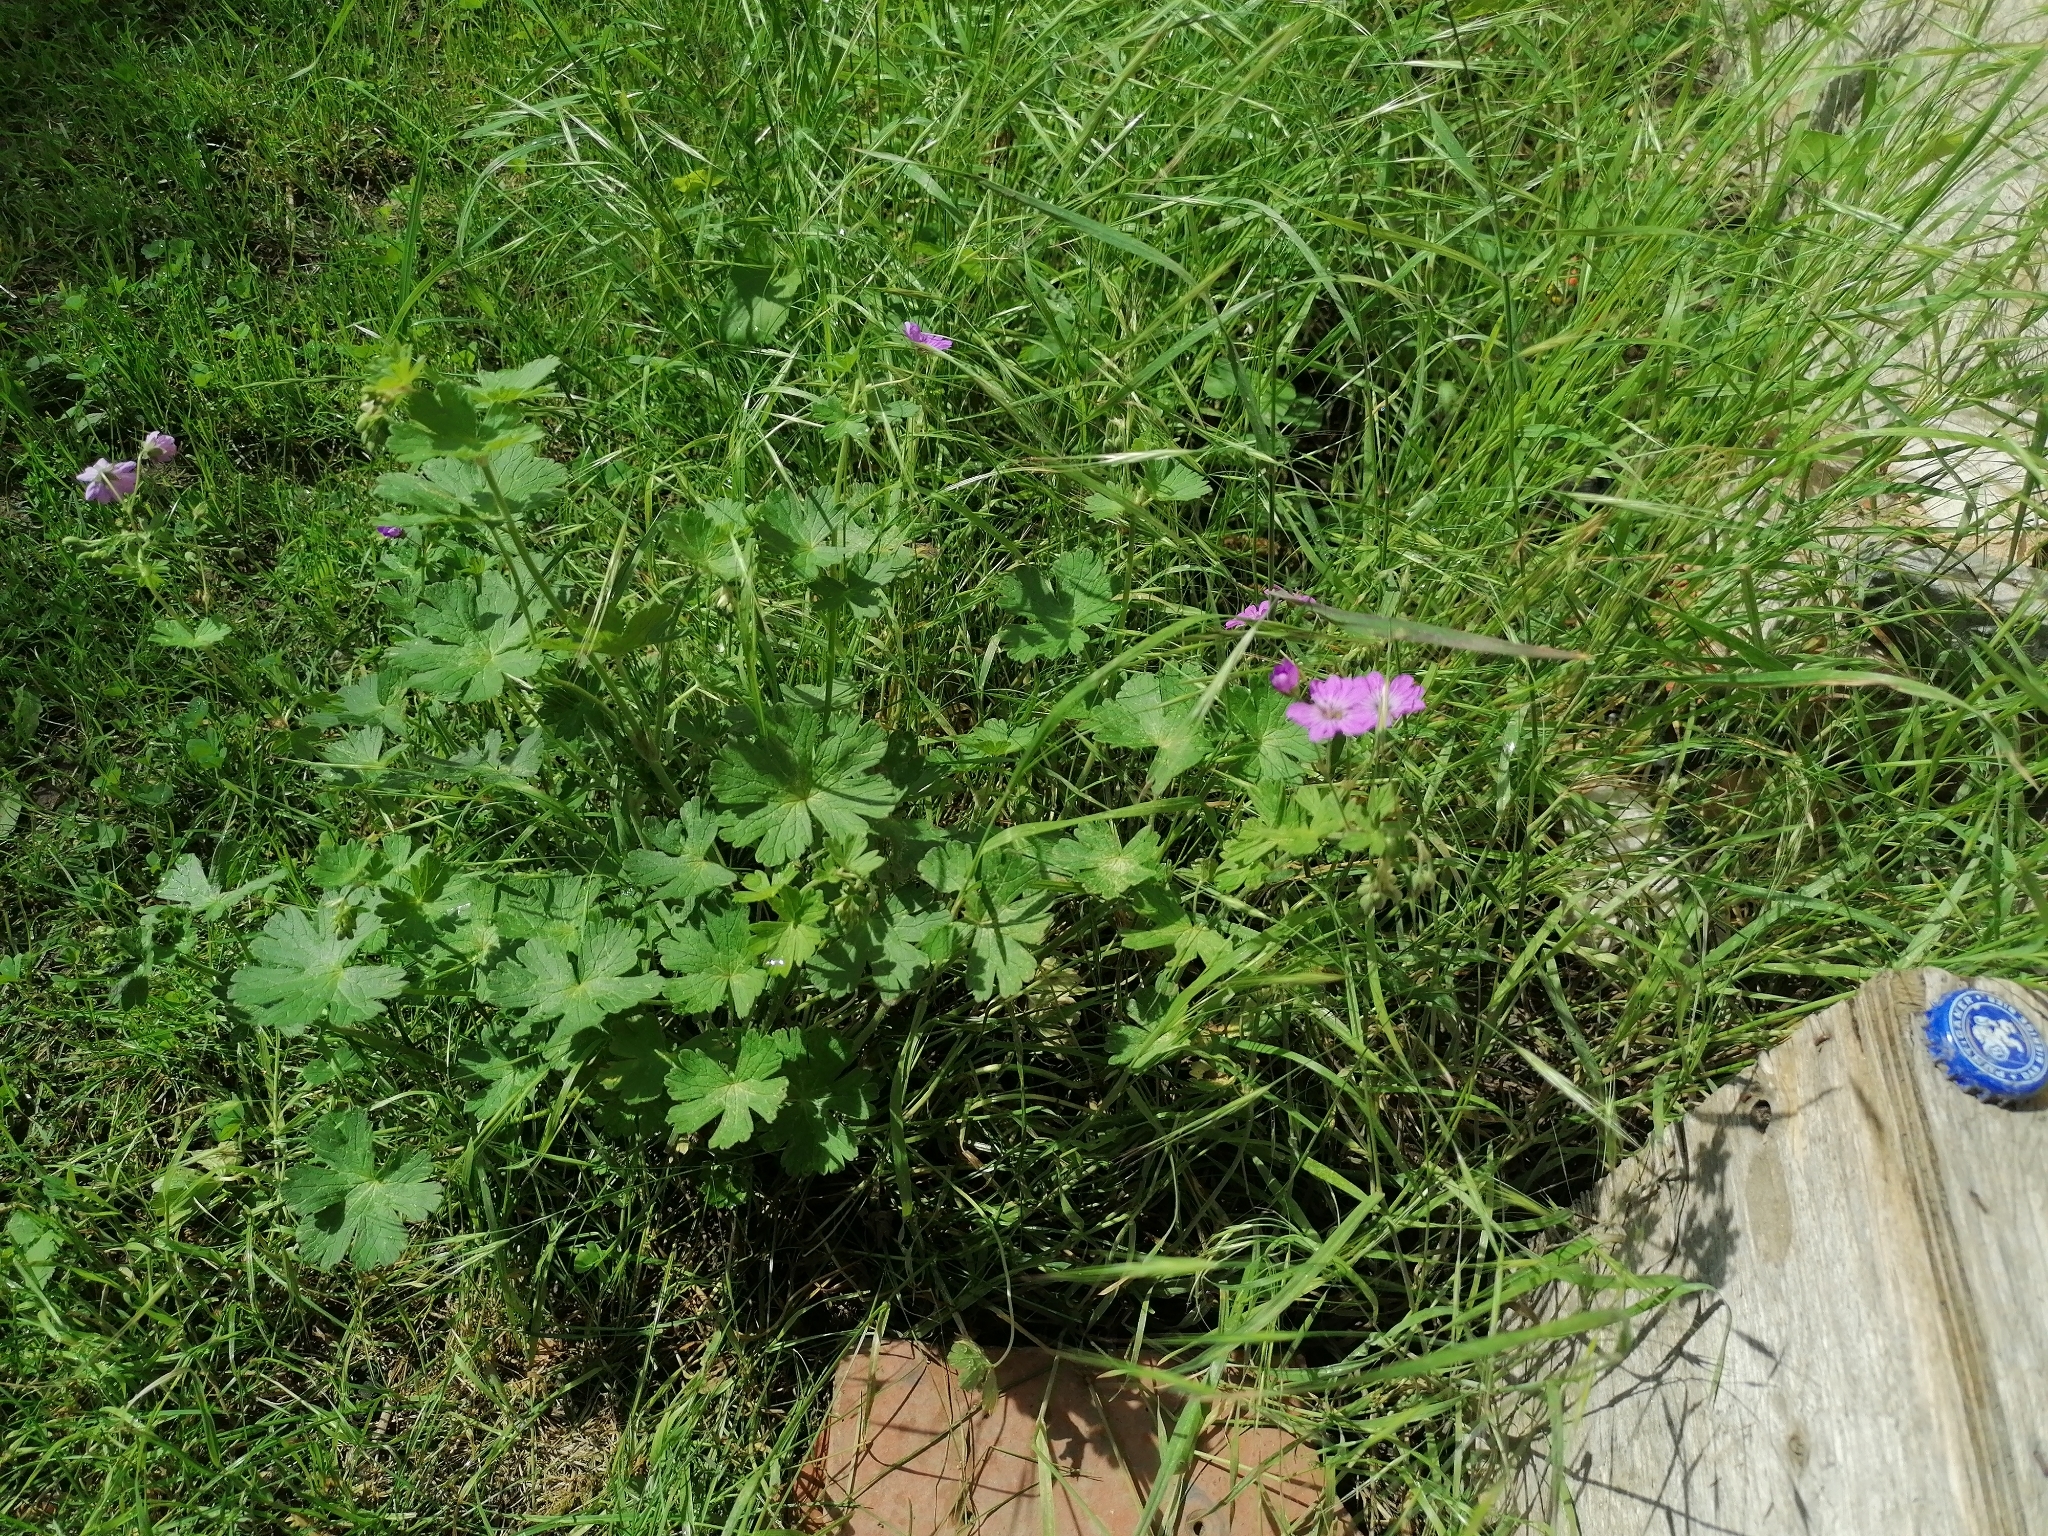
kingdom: Plantae
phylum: Tracheophyta
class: Magnoliopsida
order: Geraniales
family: Geraniaceae
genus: Geranium
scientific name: Geranium pyrenaicum
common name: Hedgerow crane's-bill
